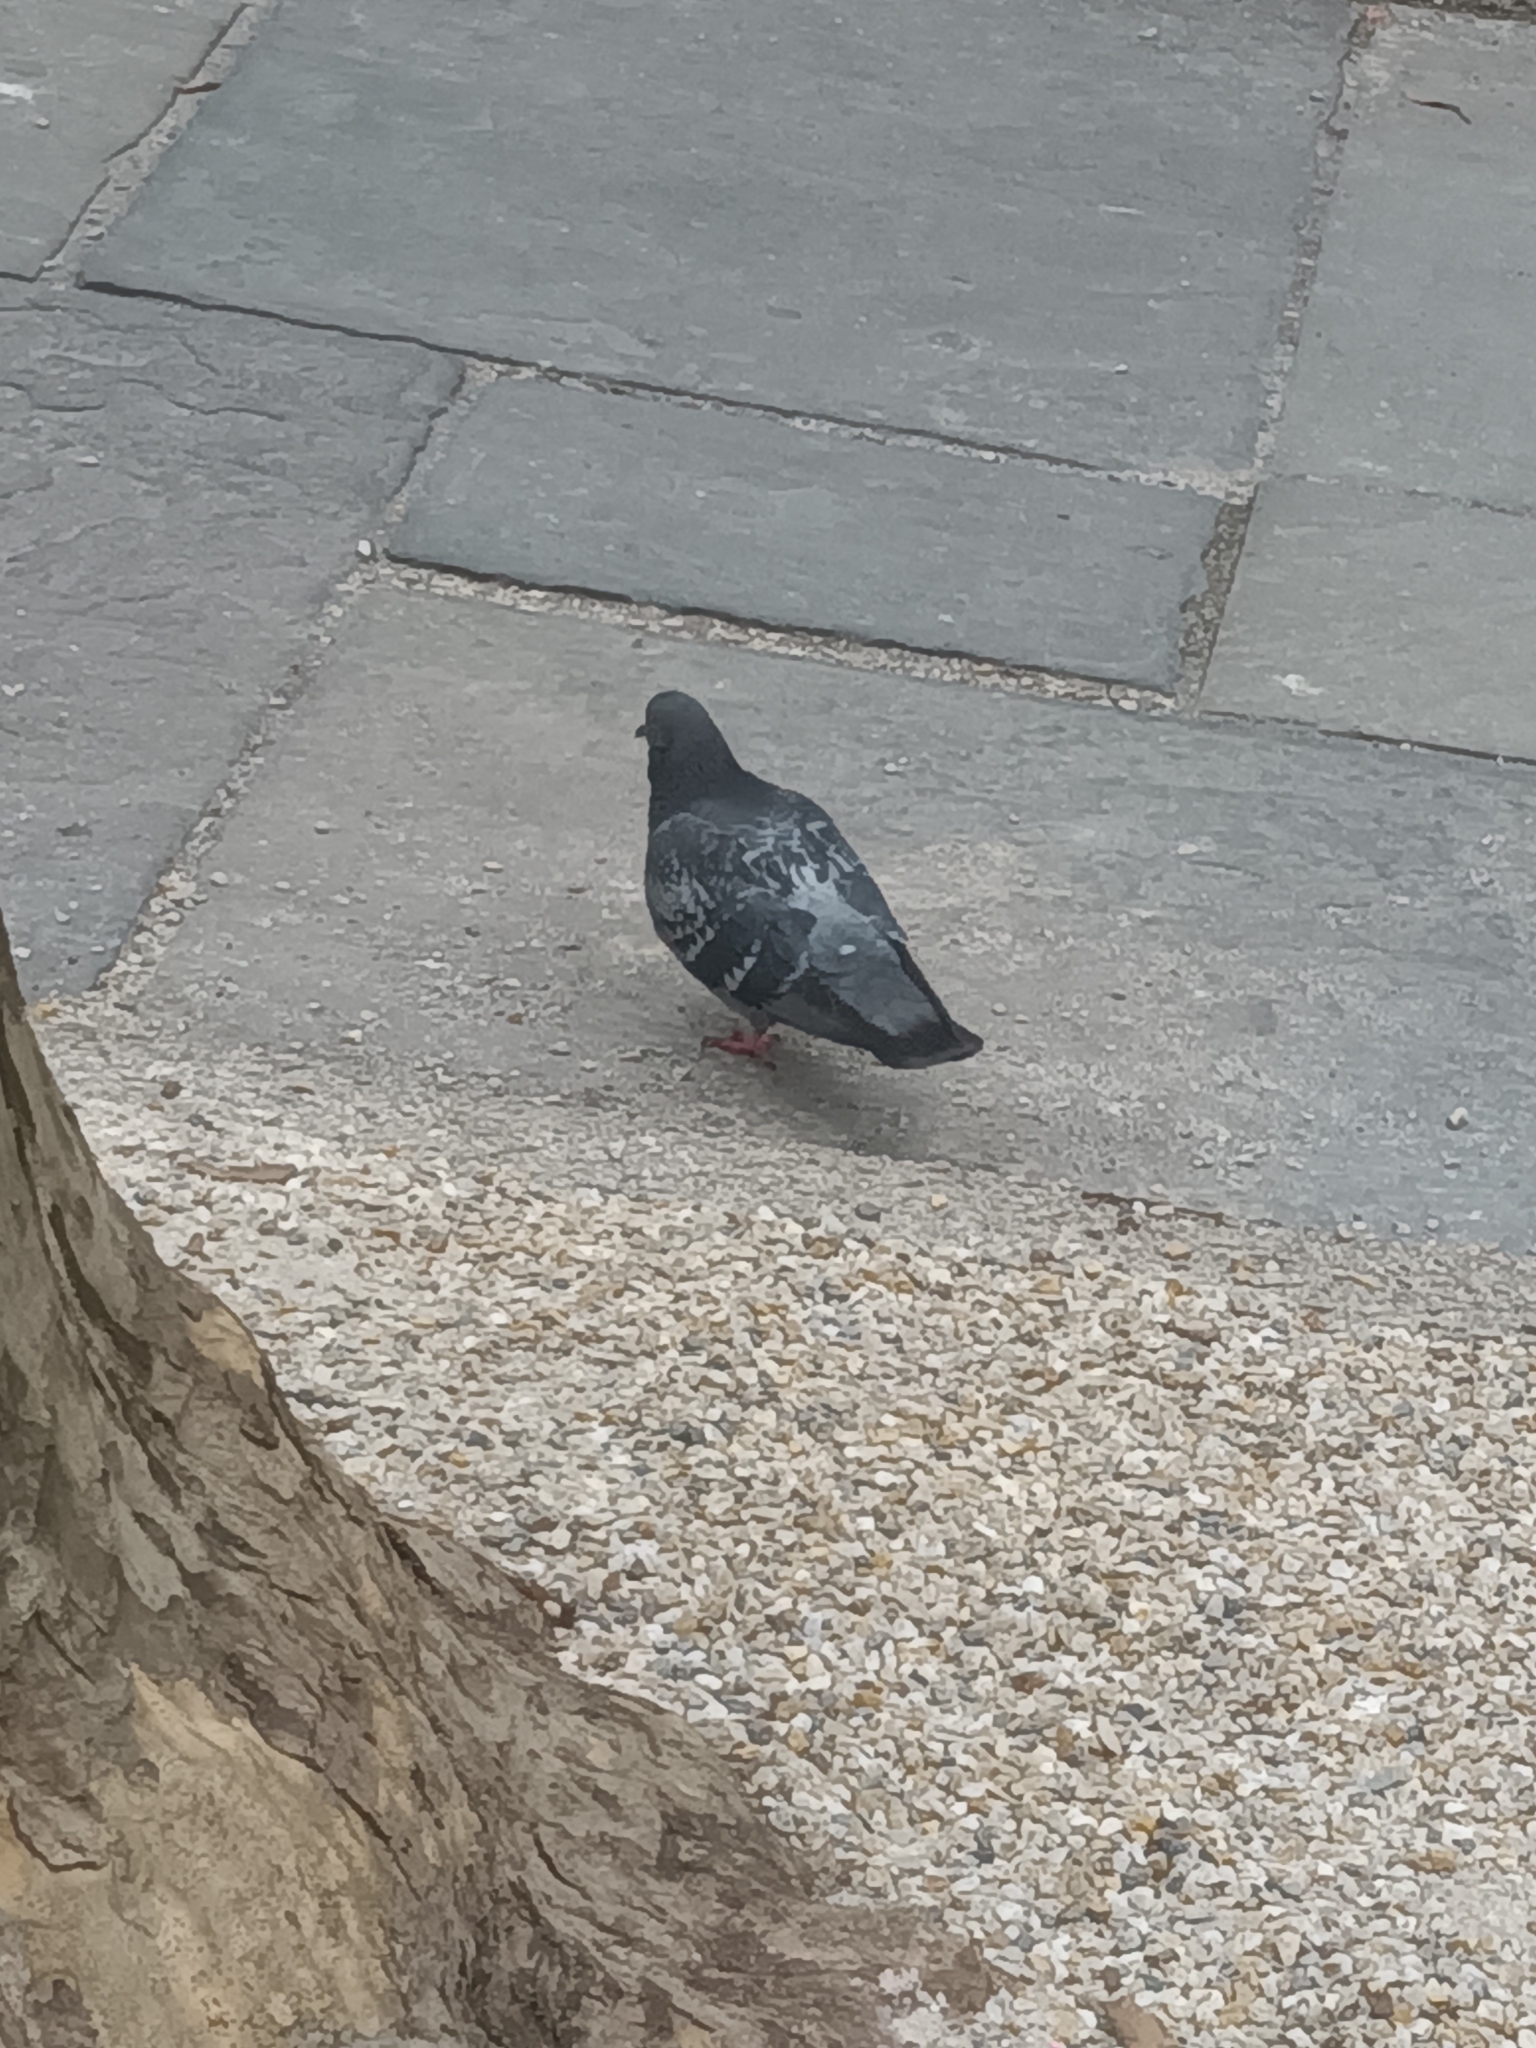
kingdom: Animalia
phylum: Chordata
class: Aves
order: Columbiformes
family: Columbidae
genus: Columba
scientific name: Columba livia
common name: Rock pigeon
